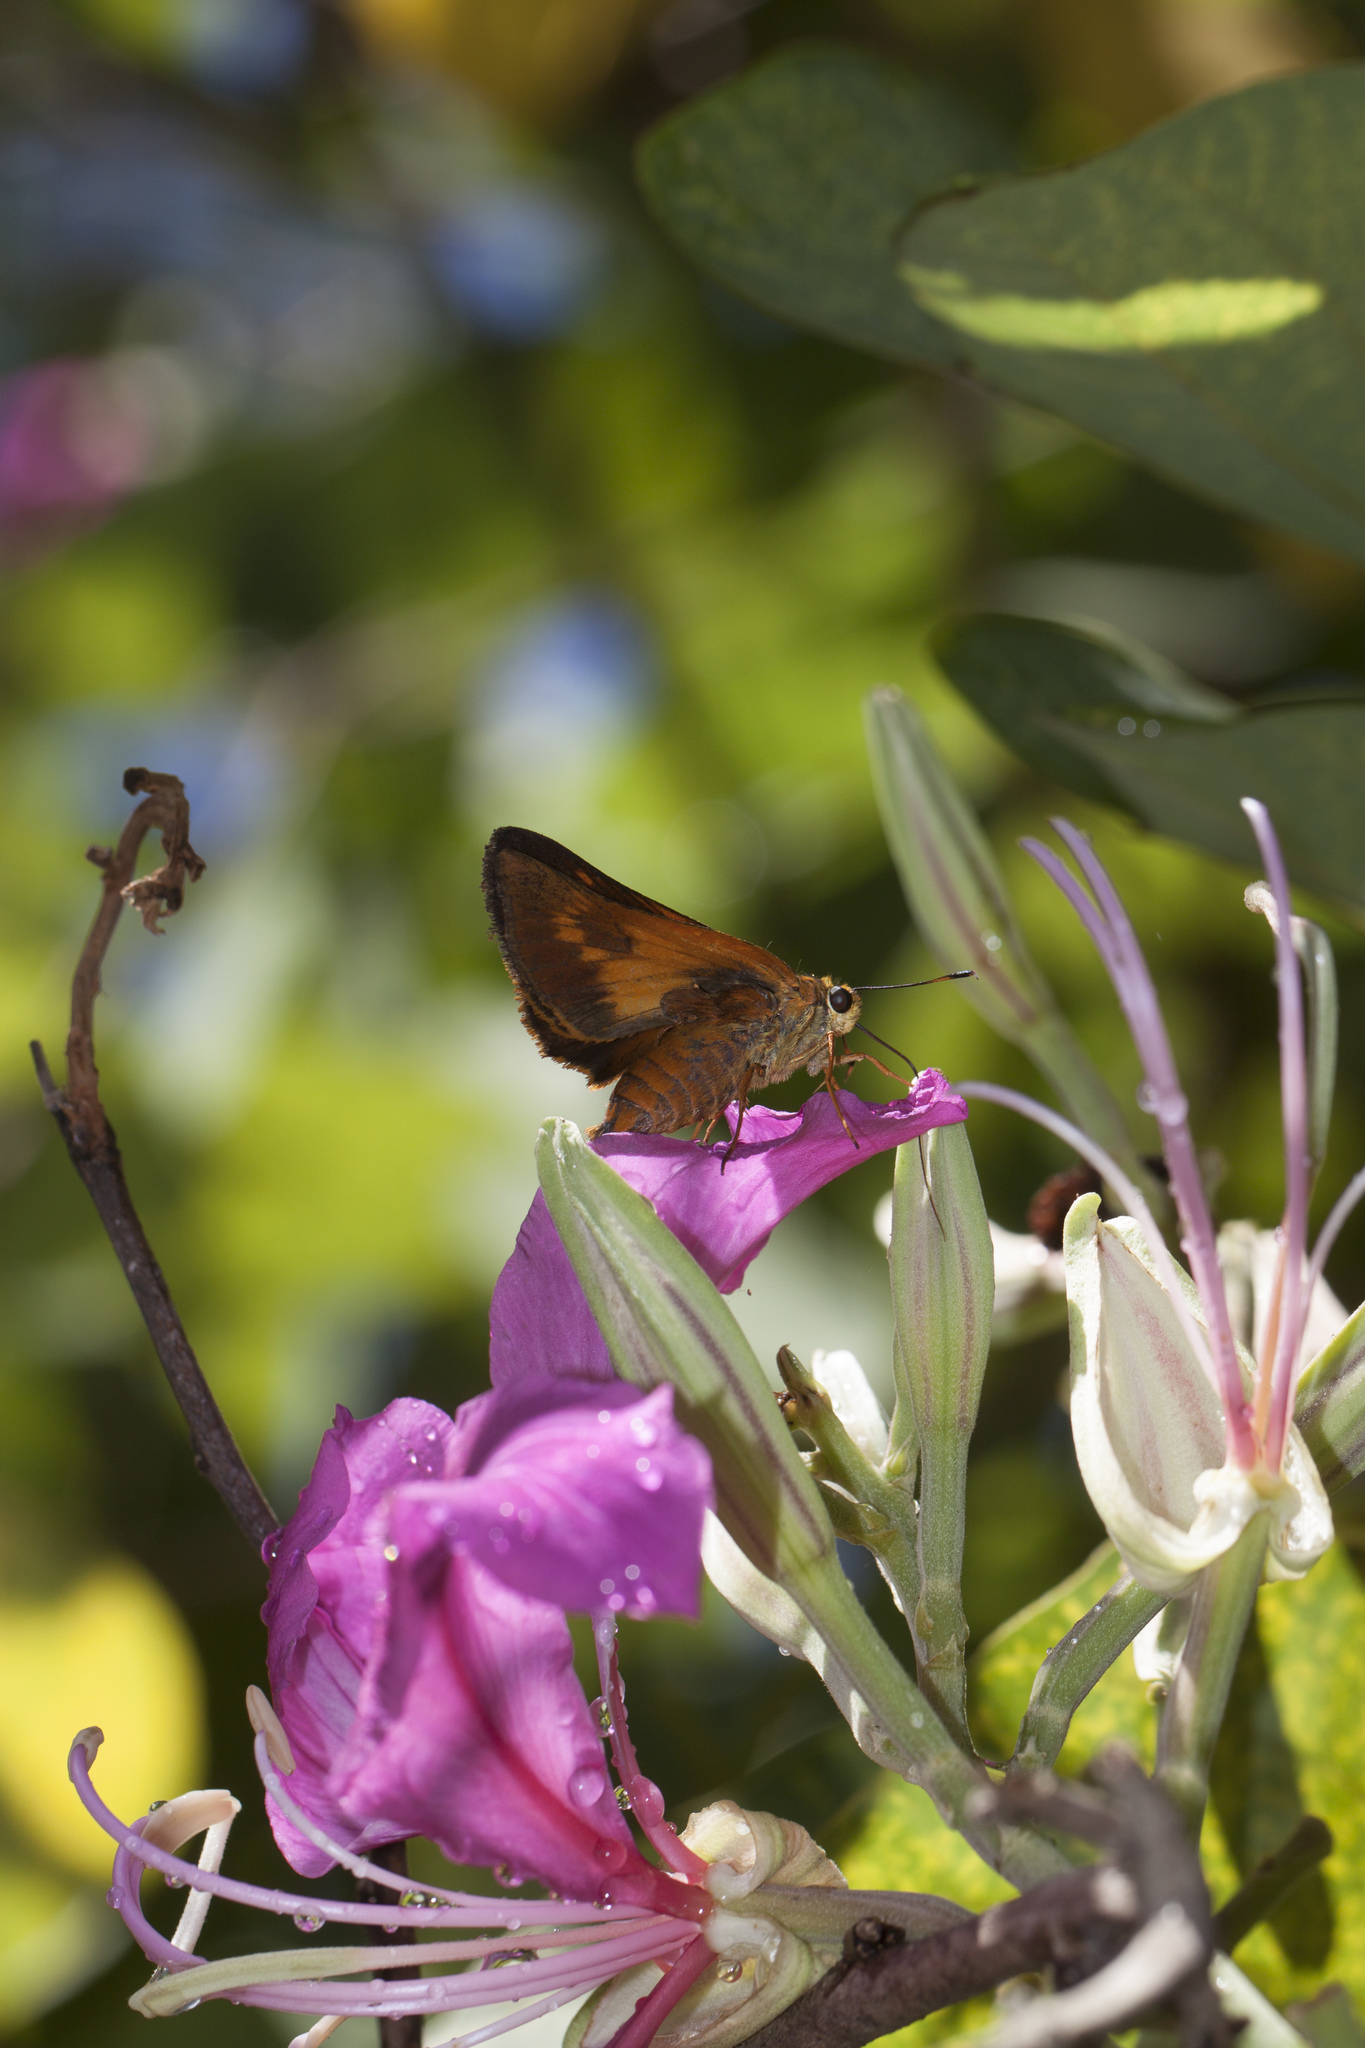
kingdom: Animalia
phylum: Arthropoda
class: Insecta
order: Lepidoptera
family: Hesperiidae
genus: Pyrrhocalles
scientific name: Pyrrhocalles antiqua
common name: Caribbean skipper
